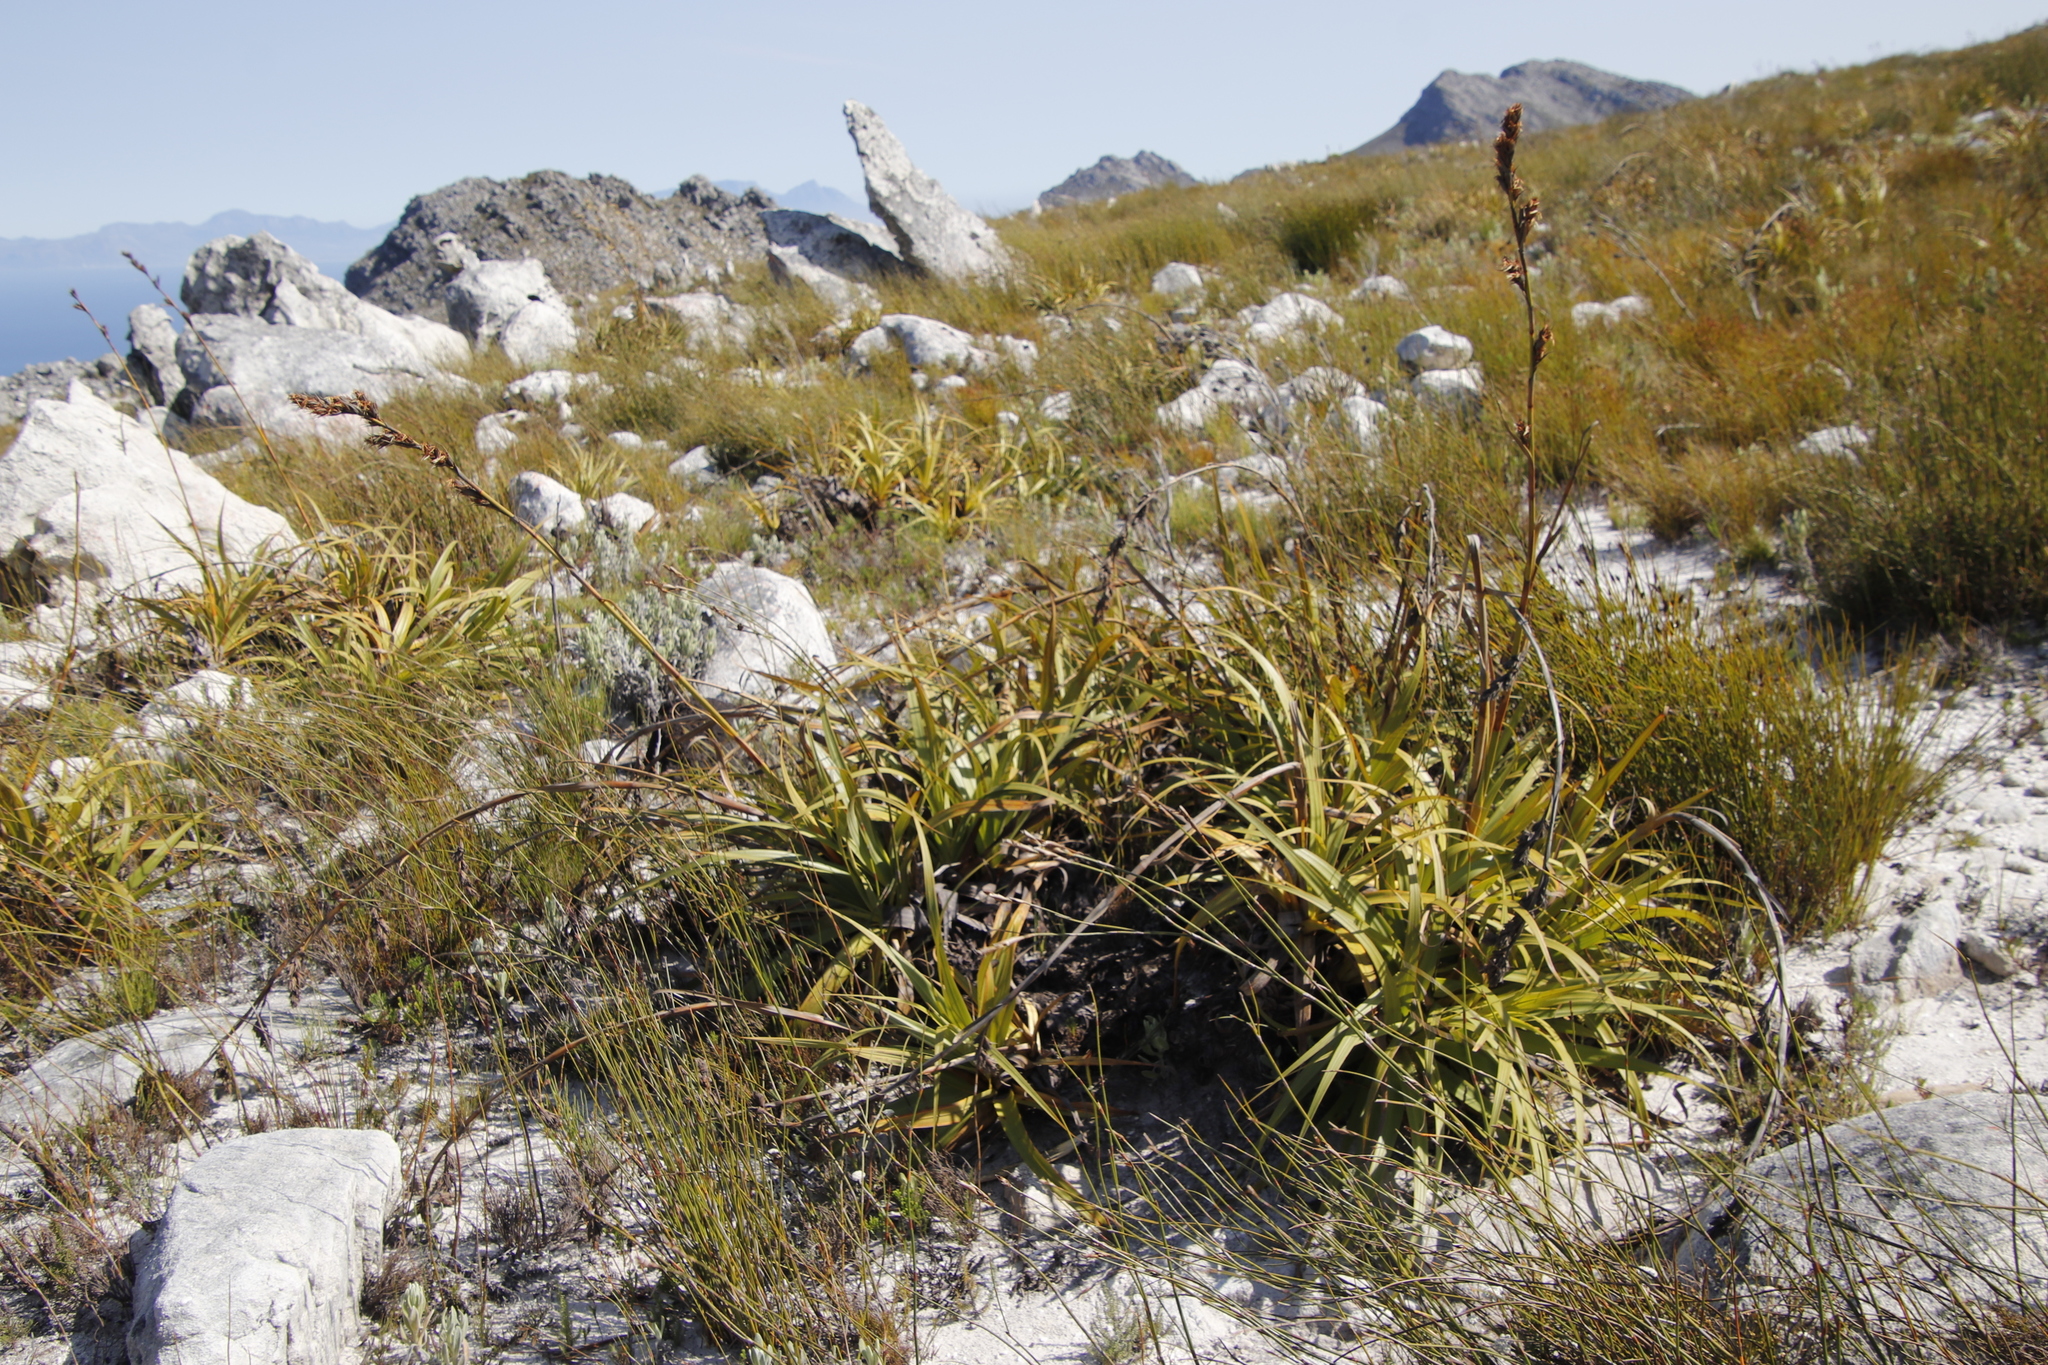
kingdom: Plantae
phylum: Tracheophyta
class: Liliopsida
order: Poales
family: Cyperaceae
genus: Tetraria
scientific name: Tetraria thermalis
